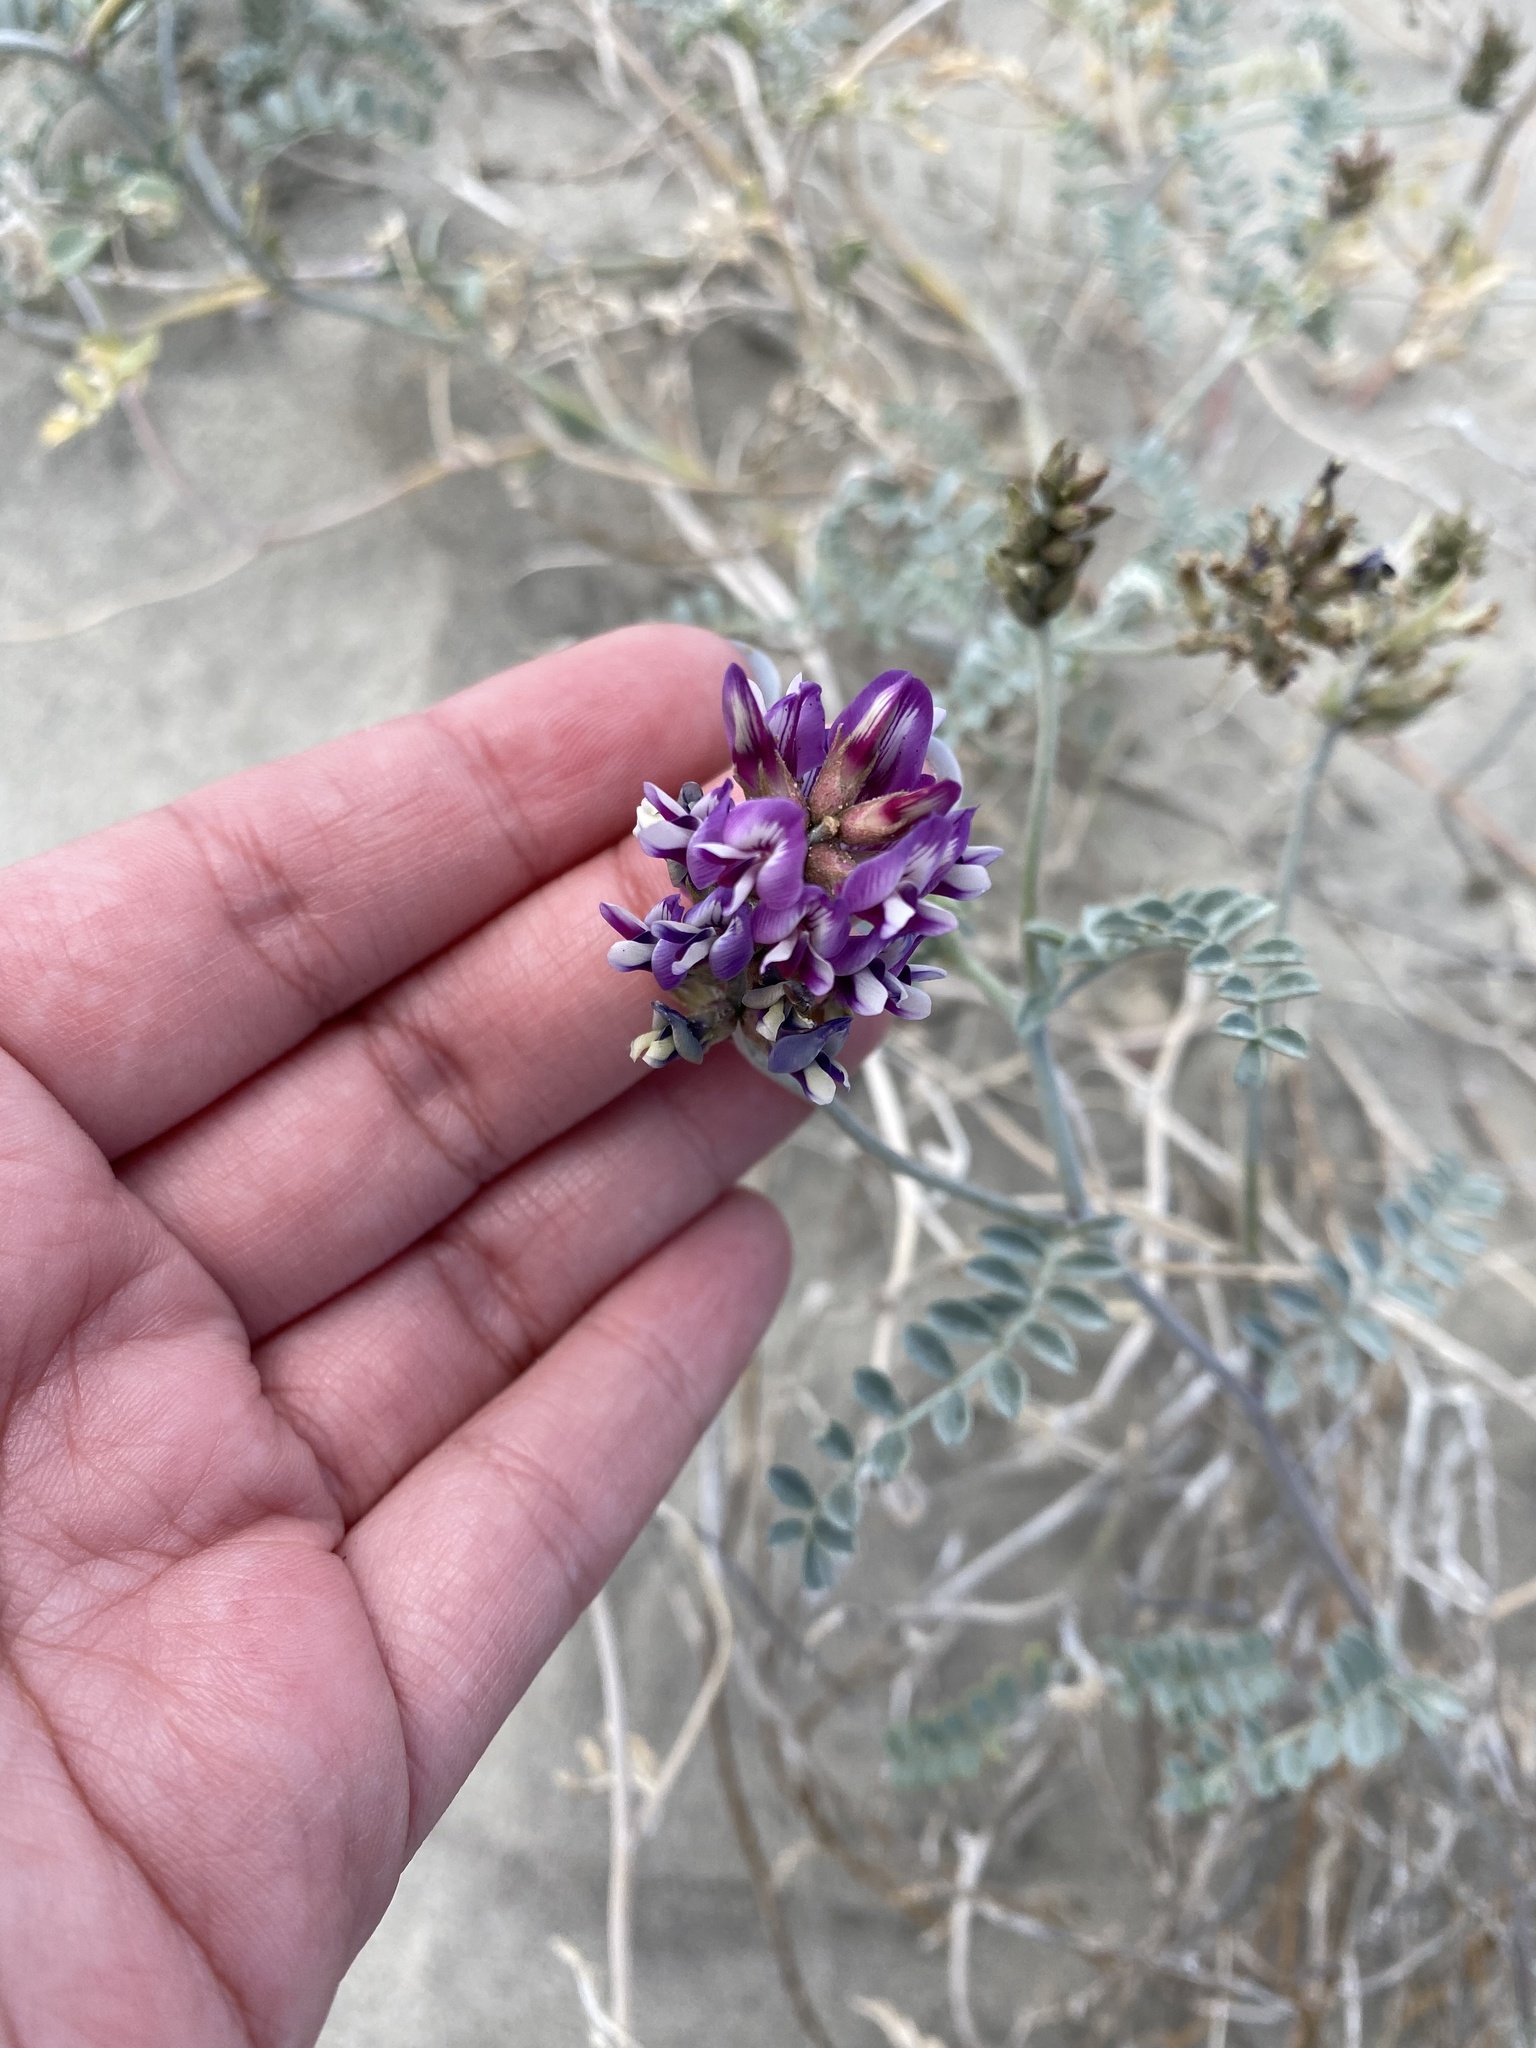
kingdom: Plantae
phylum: Tracheophyta
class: Magnoliopsida
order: Fabales
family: Fabaceae
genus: Astragalus
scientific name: Astragalus magdalenae
